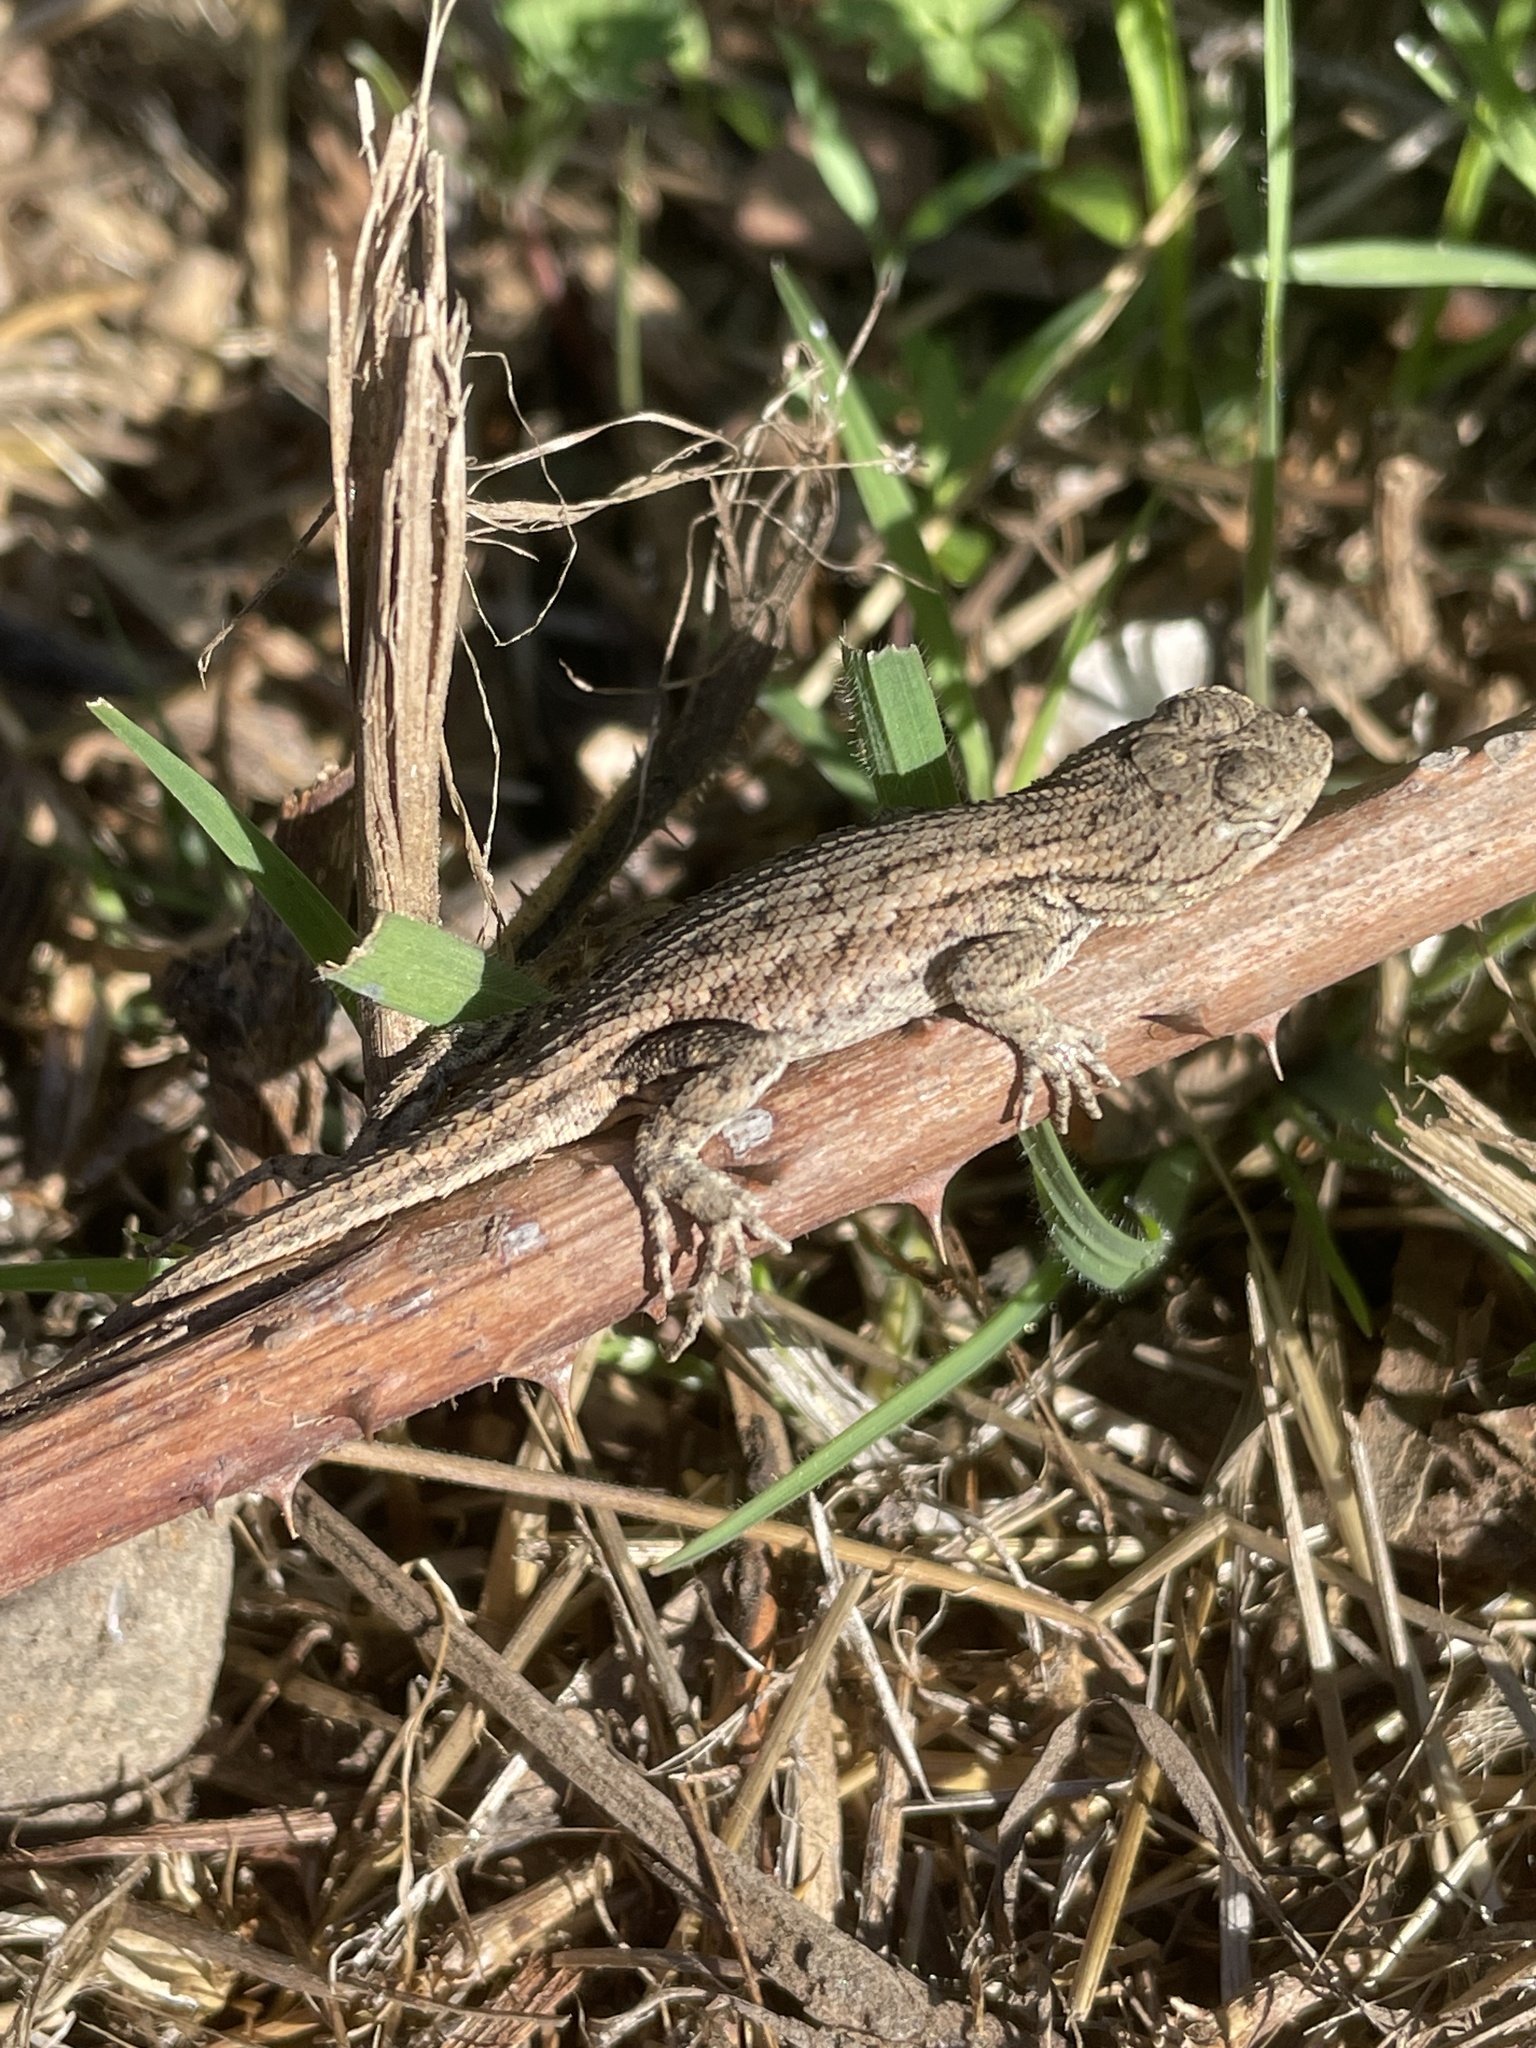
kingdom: Animalia
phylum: Chordata
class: Squamata
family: Phrynosomatidae
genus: Sceloporus
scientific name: Sceloporus occidentalis
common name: Western fence lizard
